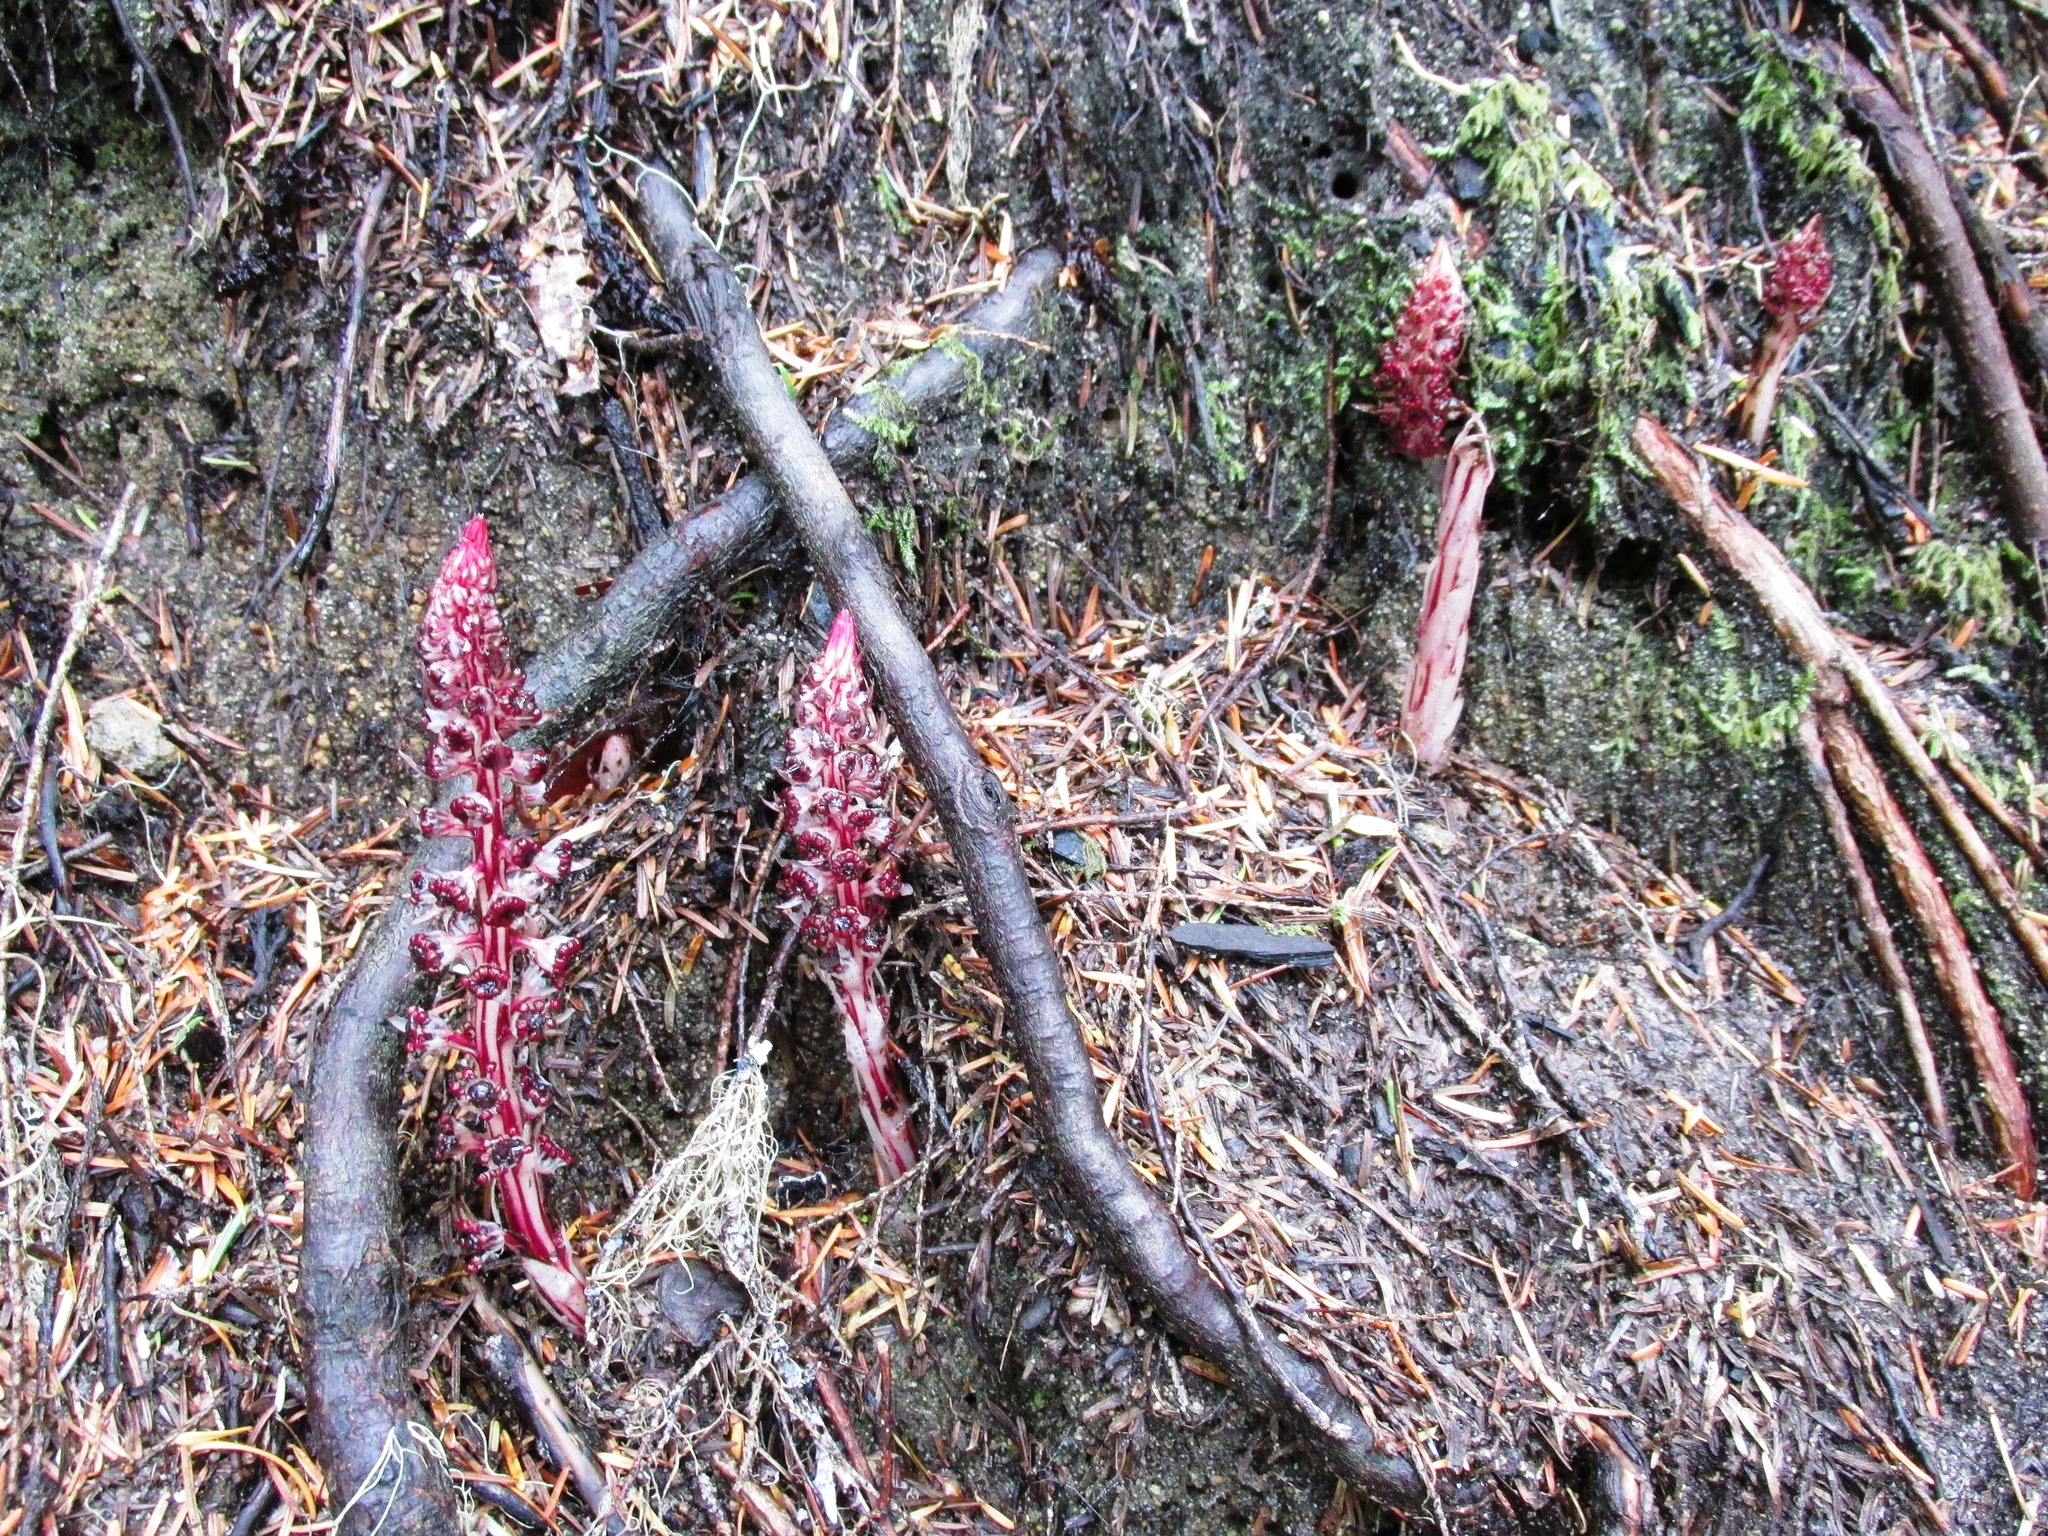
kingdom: Plantae
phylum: Tracheophyta
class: Magnoliopsida
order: Ericales
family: Ericaceae
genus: Allotropa
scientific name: Allotropa virgata
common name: Candy-striped allotropa
